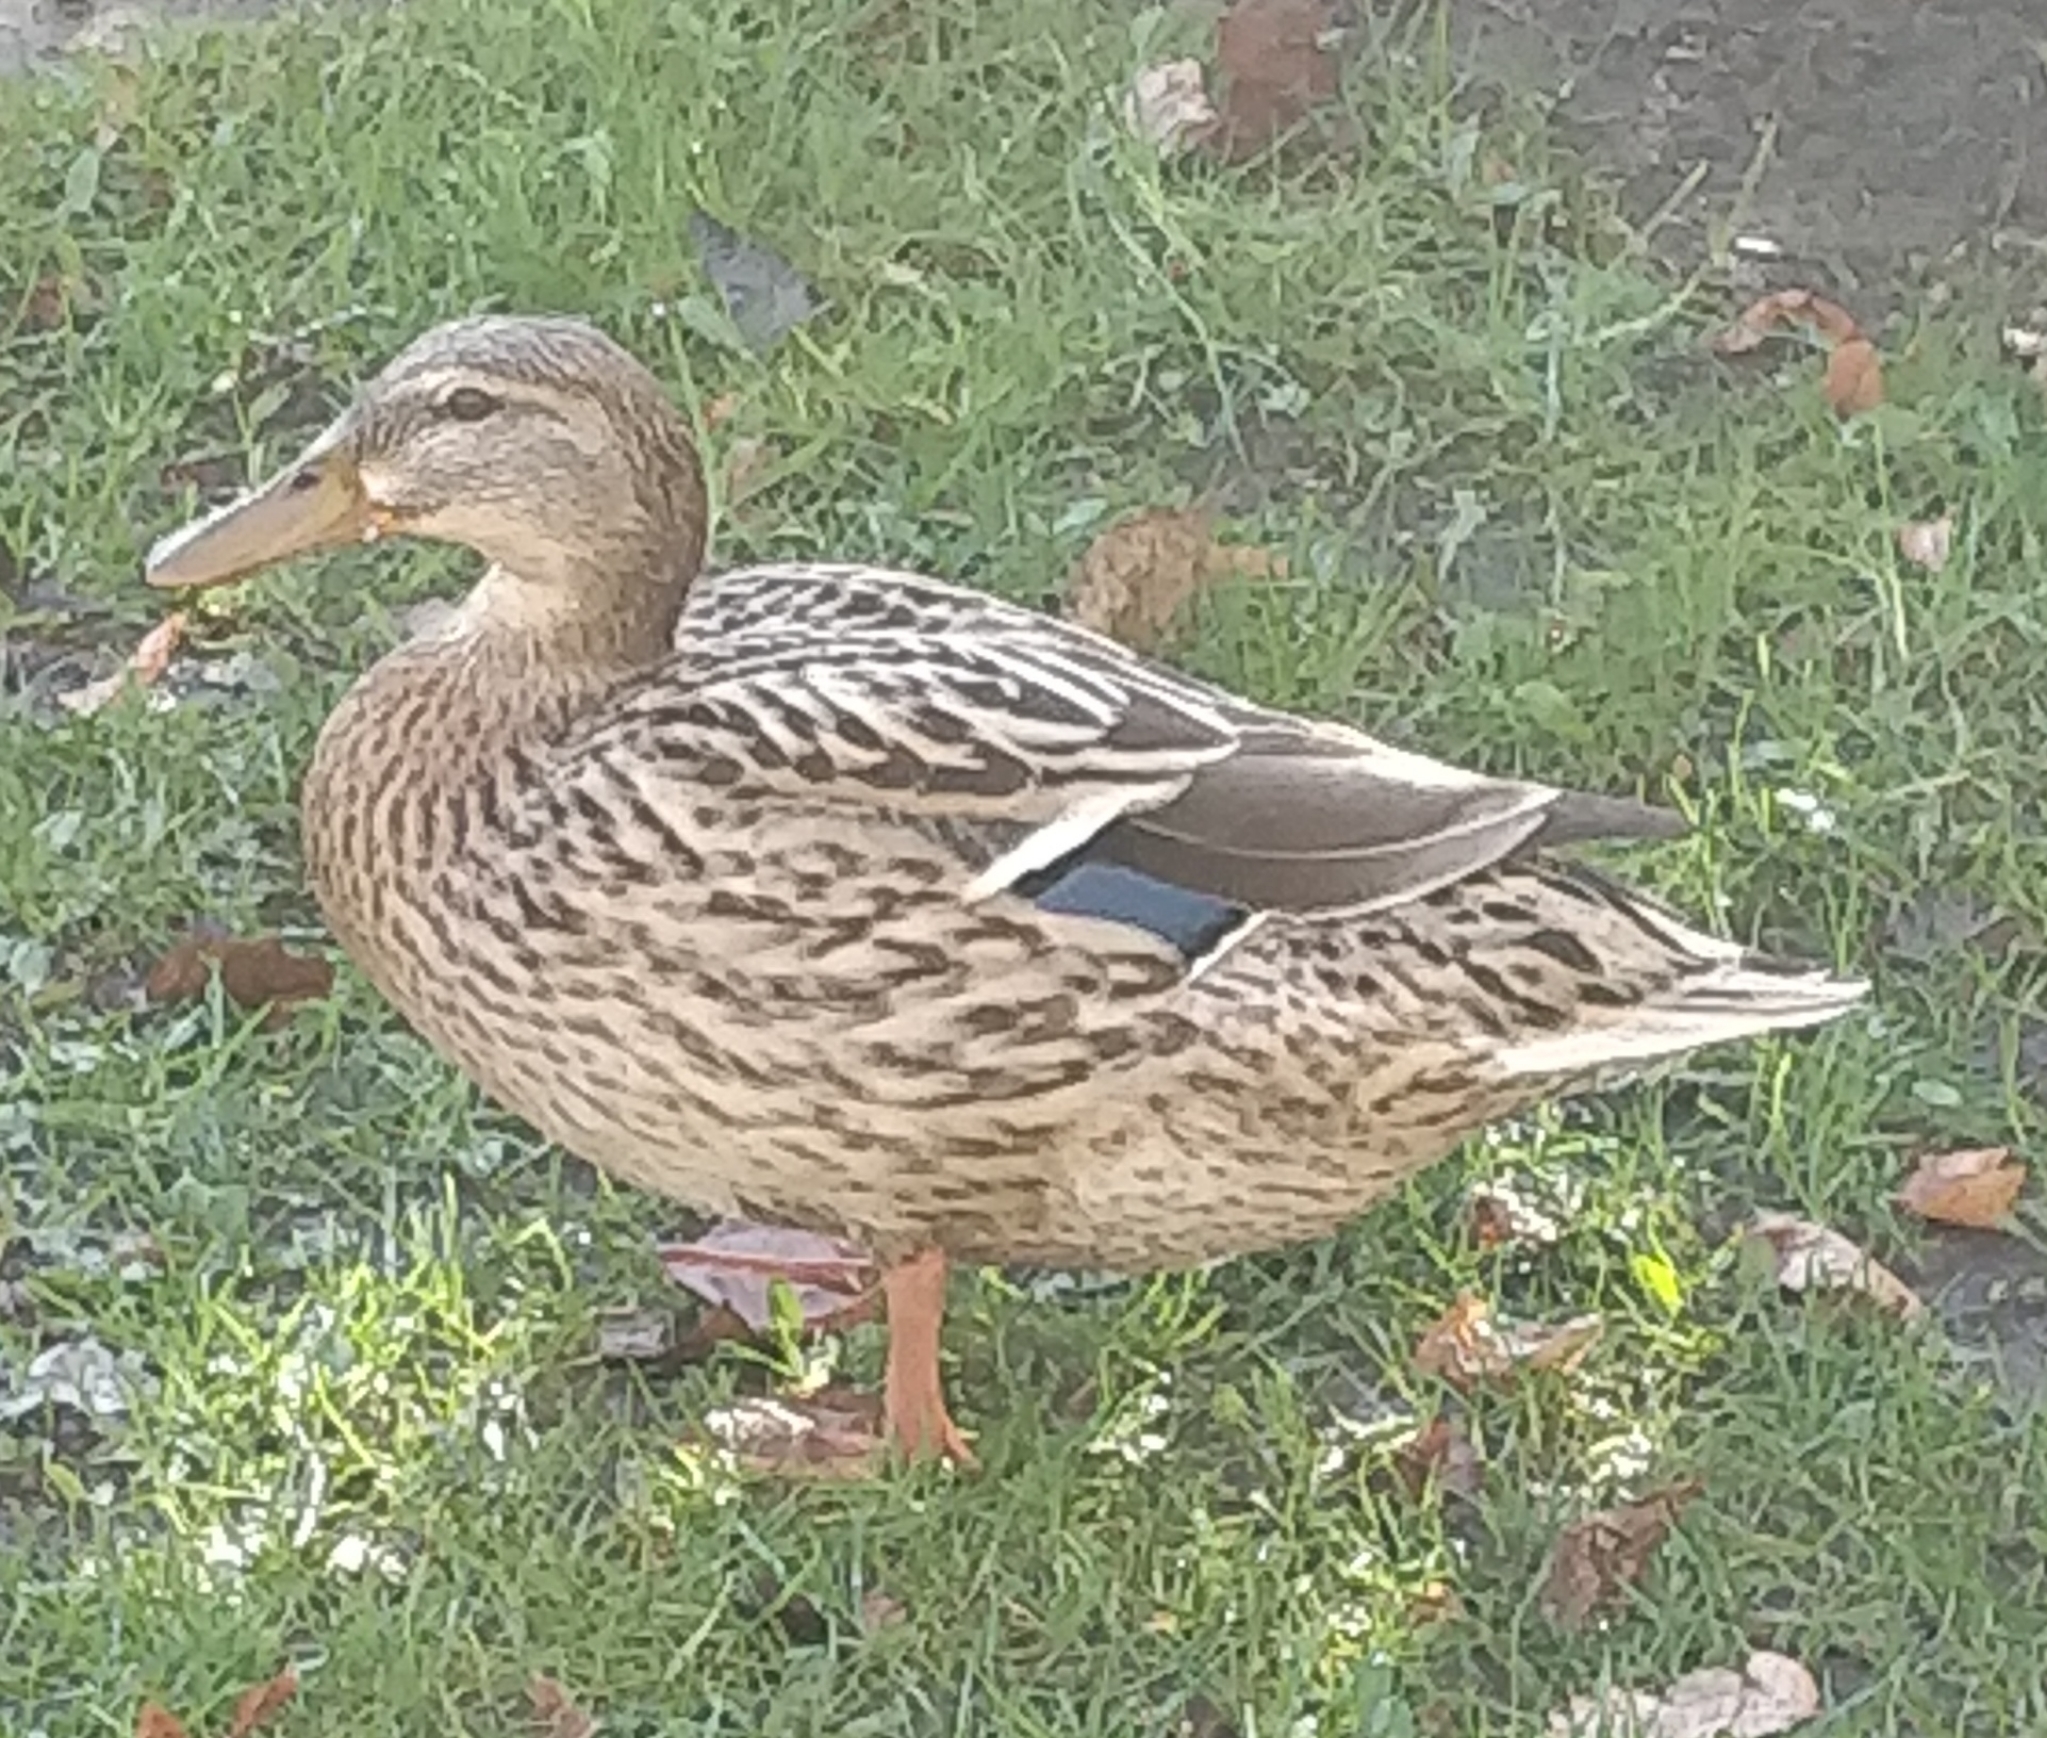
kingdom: Animalia
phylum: Chordata
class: Aves
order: Anseriformes
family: Anatidae
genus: Anas
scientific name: Anas platyrhynchos
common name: Mallard
